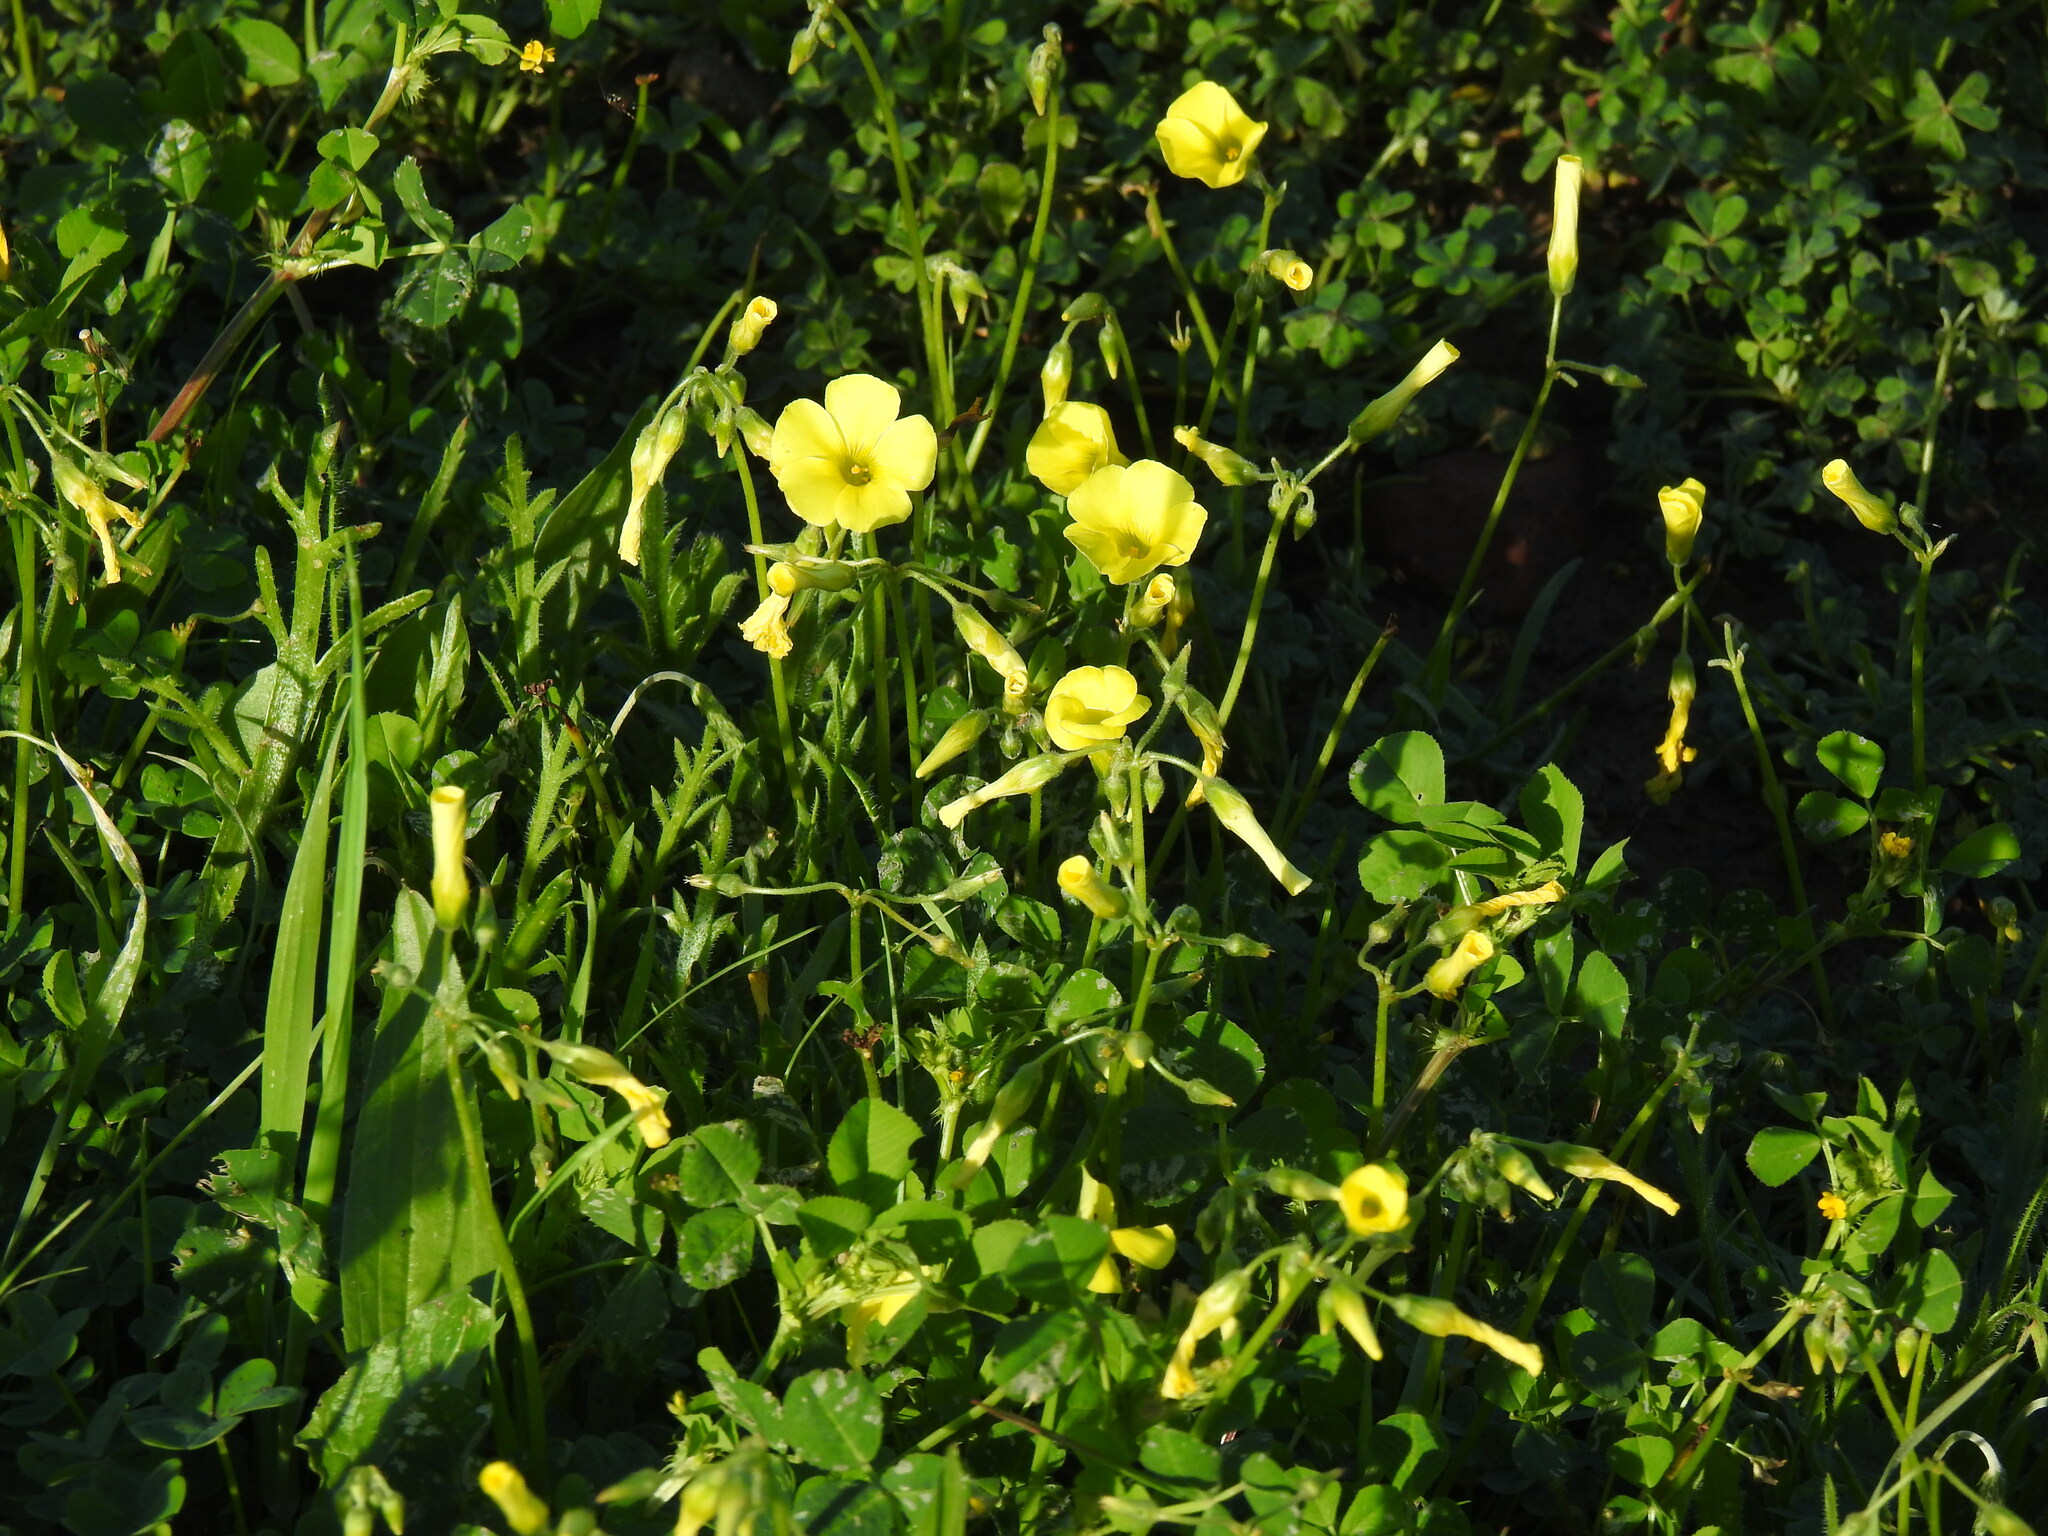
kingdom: Plantae
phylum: Tracheophyta
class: Magnoliopsida
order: Oxalidales
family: Oxalidaceae
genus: Oxalis
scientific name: Oxalis pes-caprae
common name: Bermuda-buttercup
